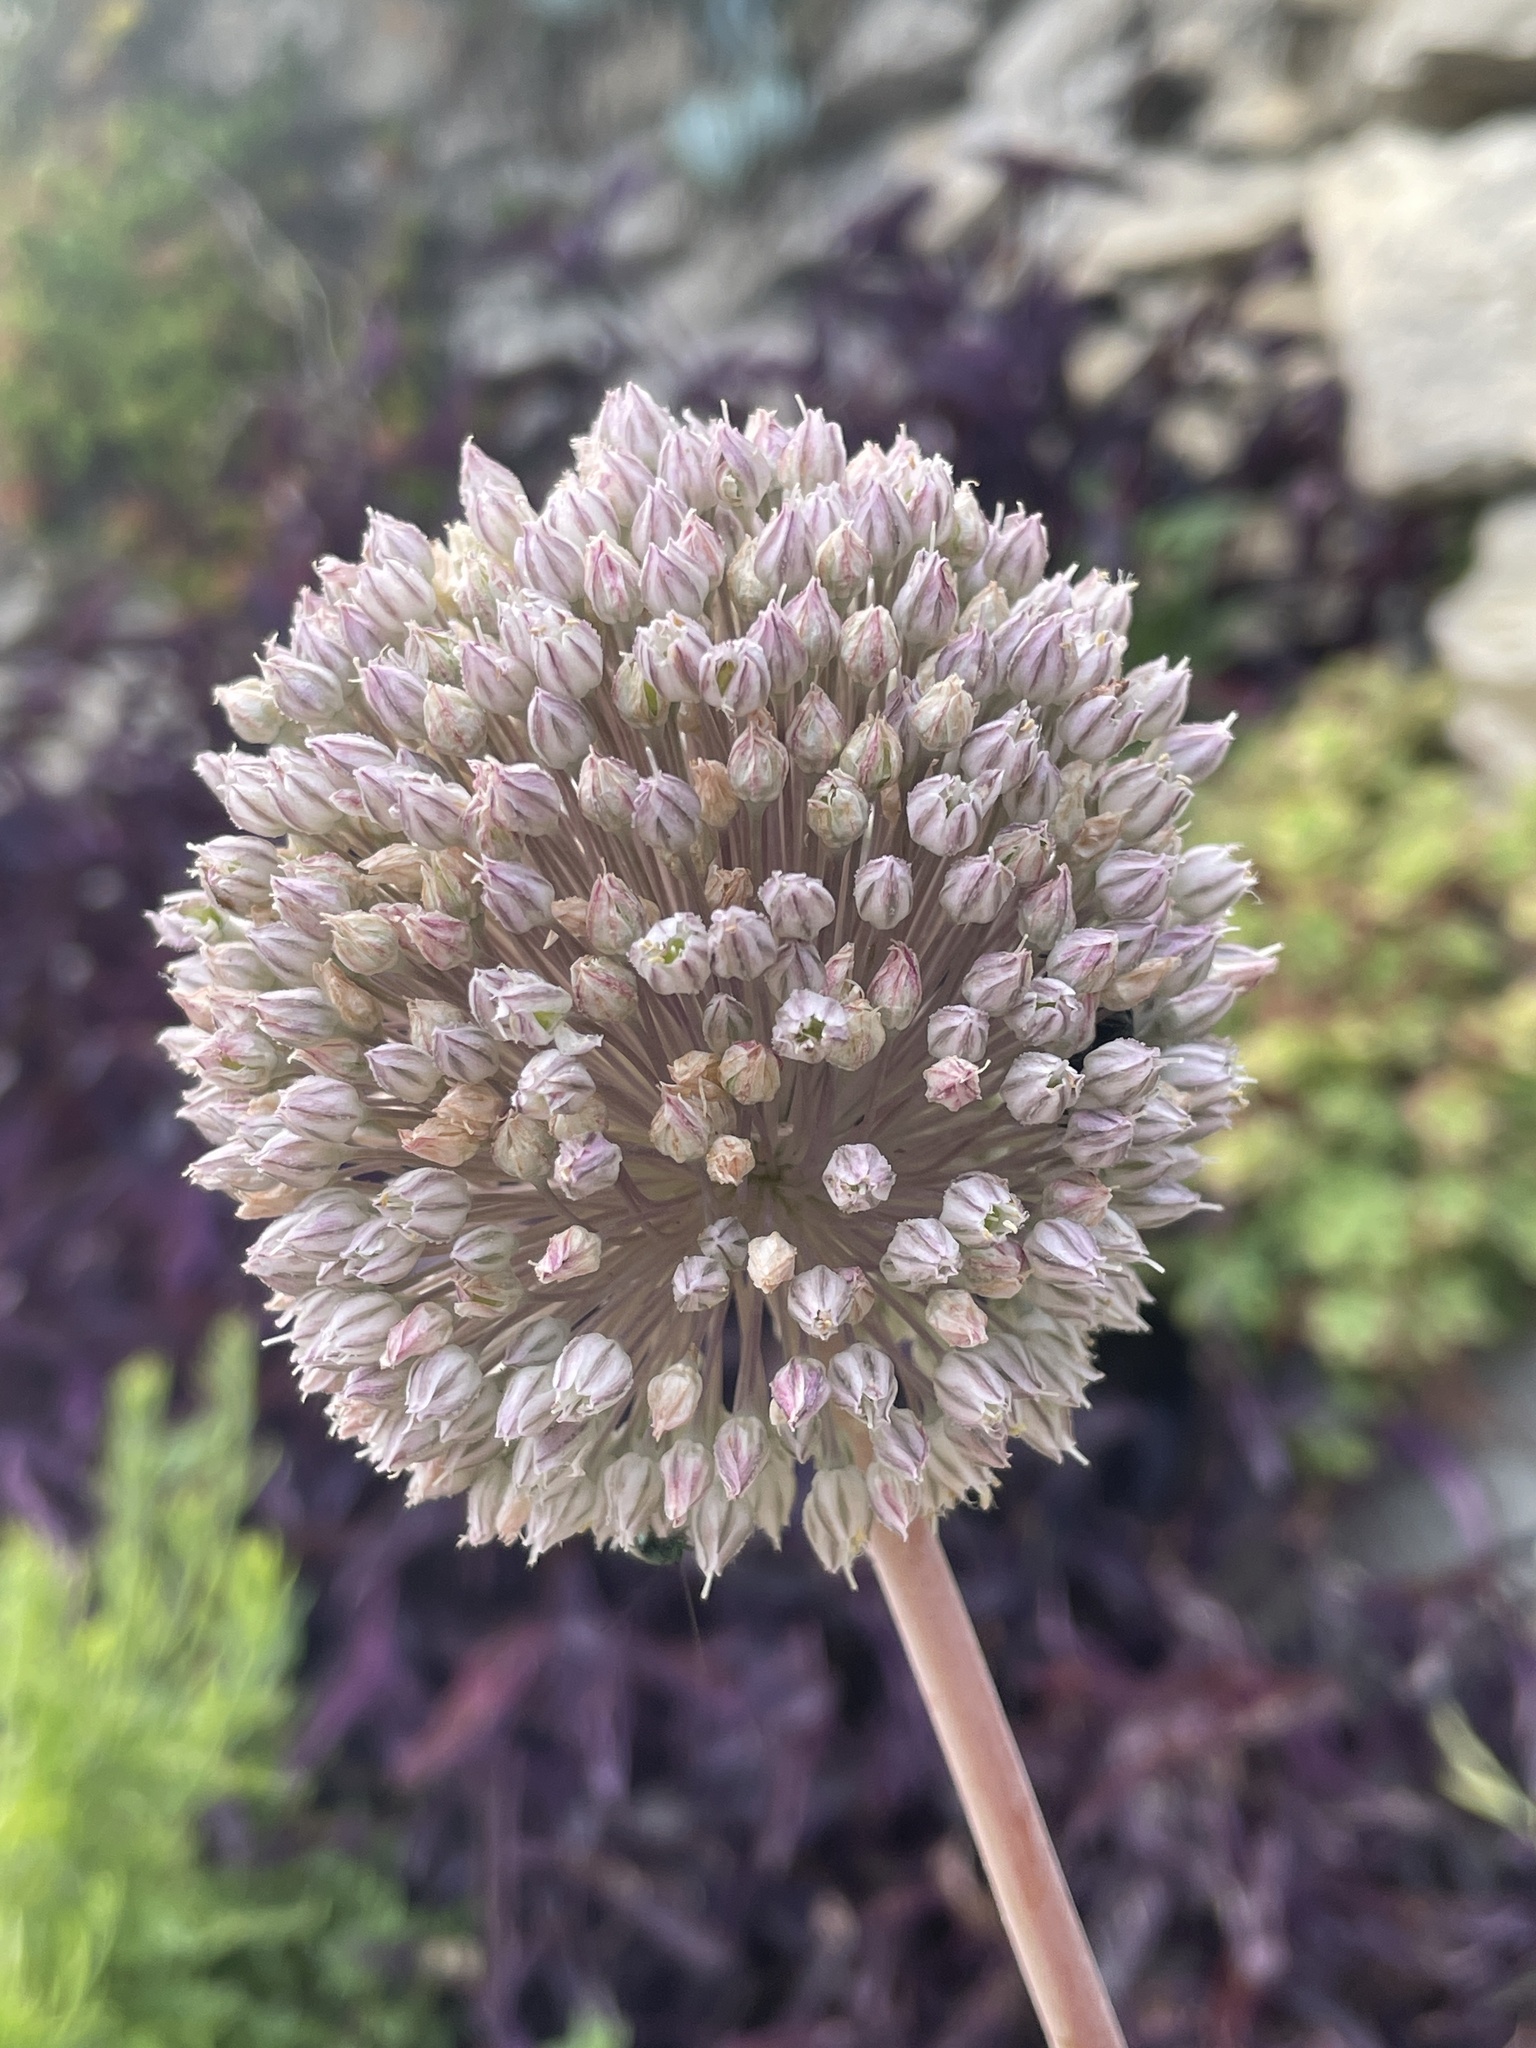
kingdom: Plantae
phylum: Tracheophyta
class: Liliopsida
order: Asparagales
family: Amaryllidaceae
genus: Allium
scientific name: Allium ampeloprasum
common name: Wild leek
